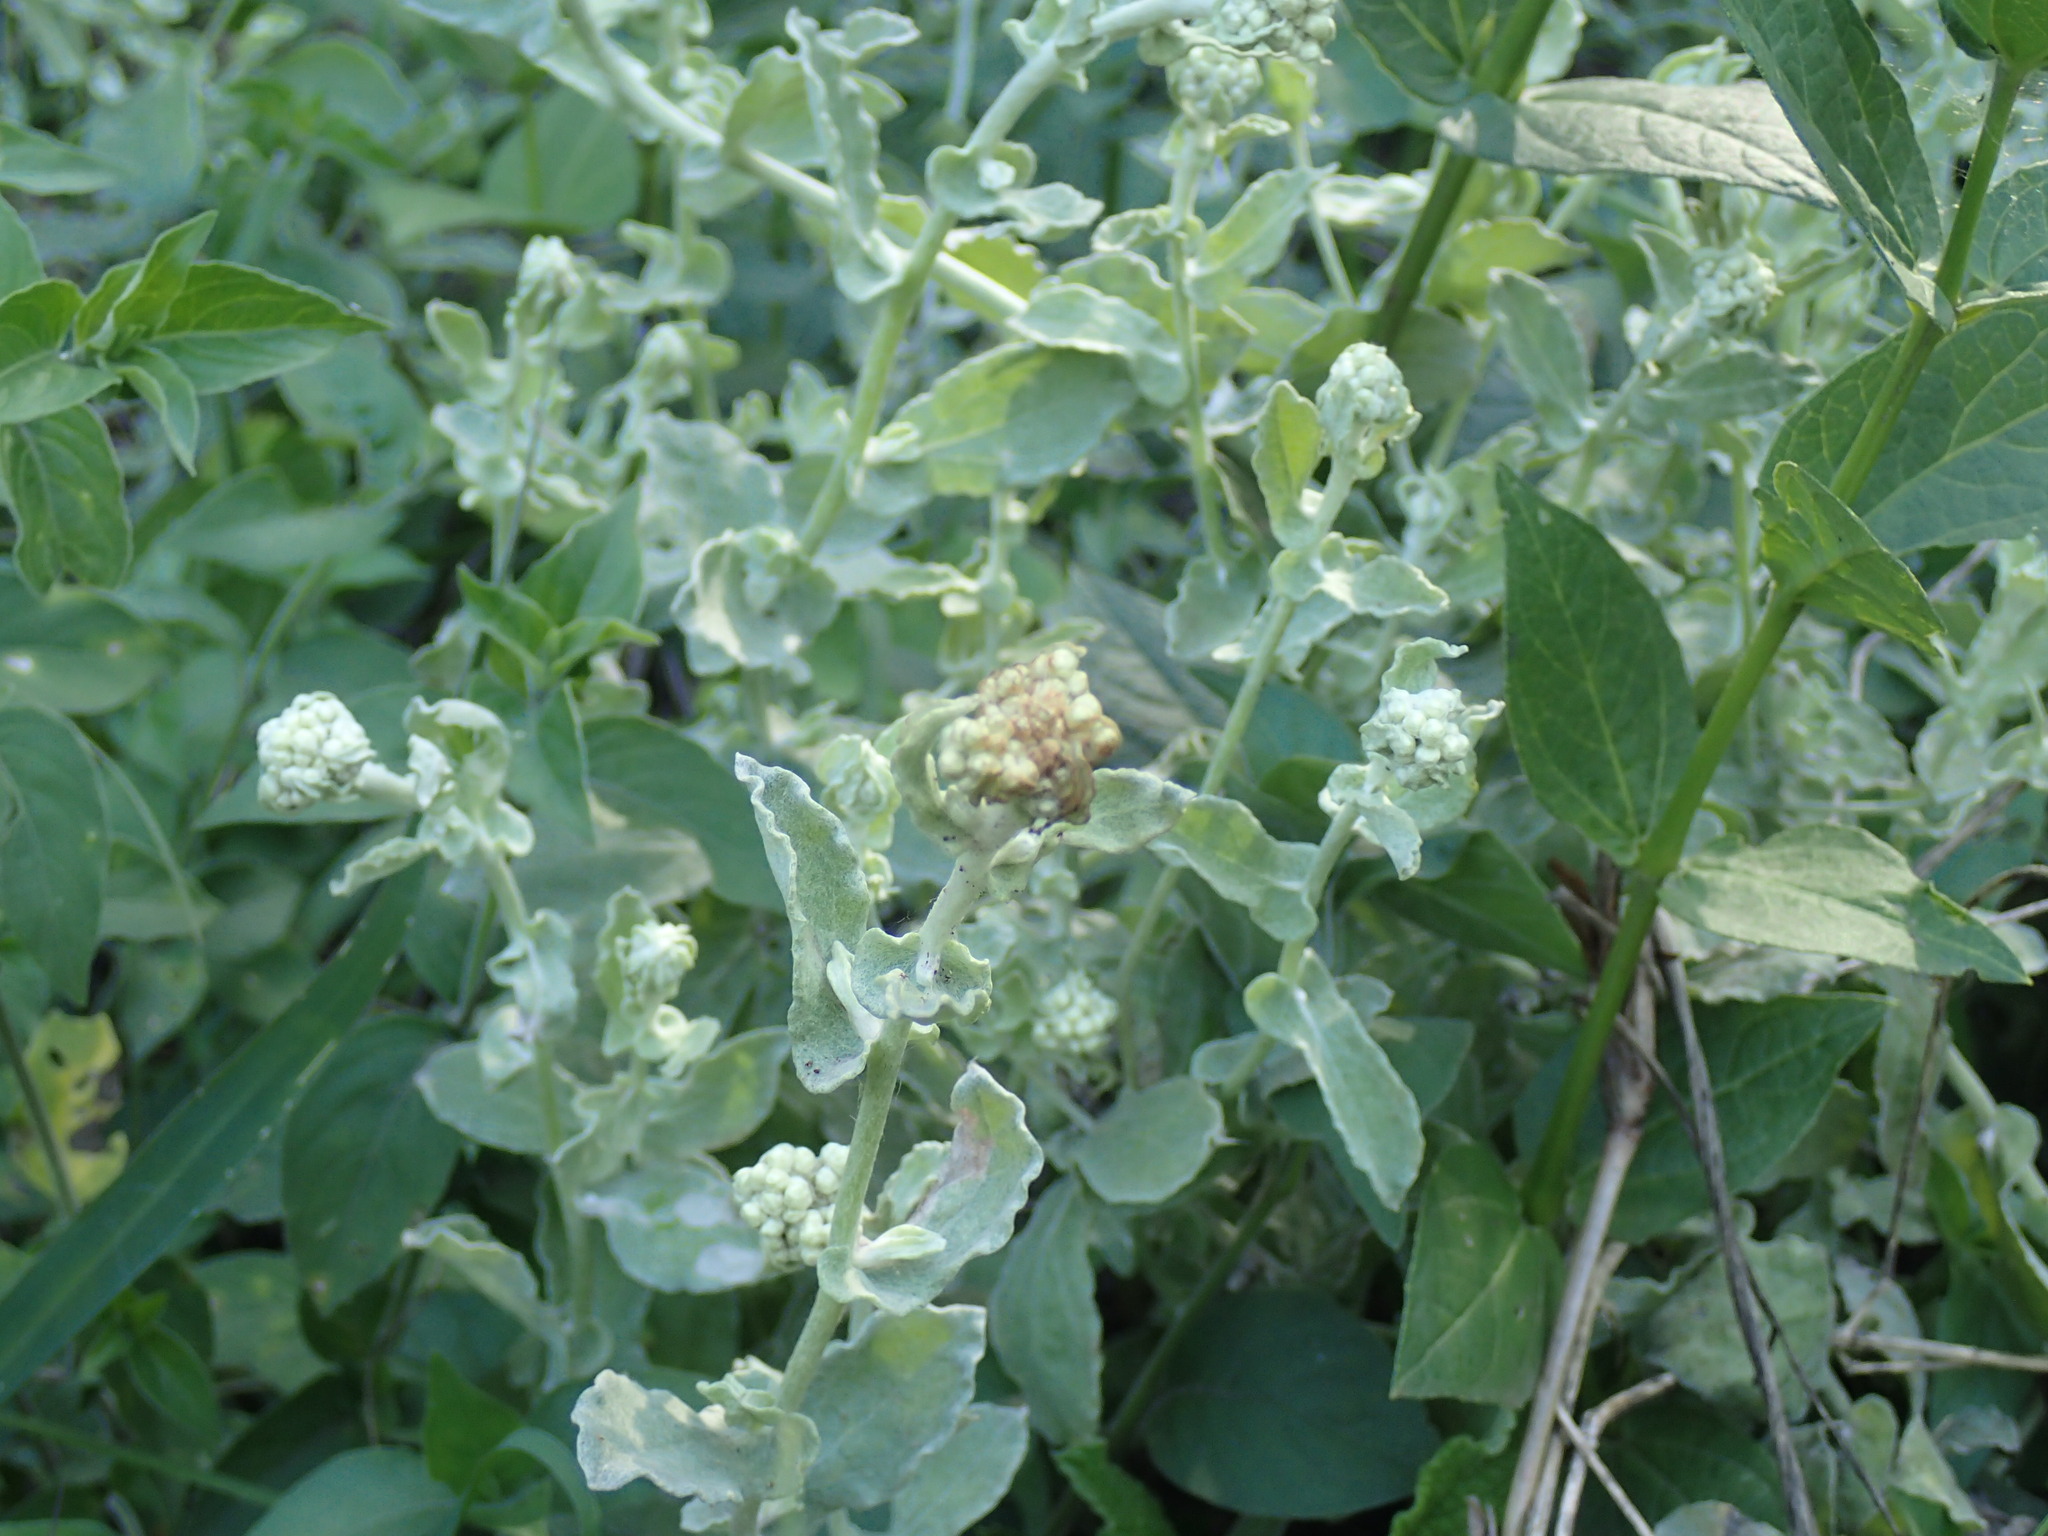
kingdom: Plantae
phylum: Tracheophyta
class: Magnoliopsida
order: Asterales
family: Asteraceae
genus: Helichrysum
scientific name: Helichrysum panduratum
